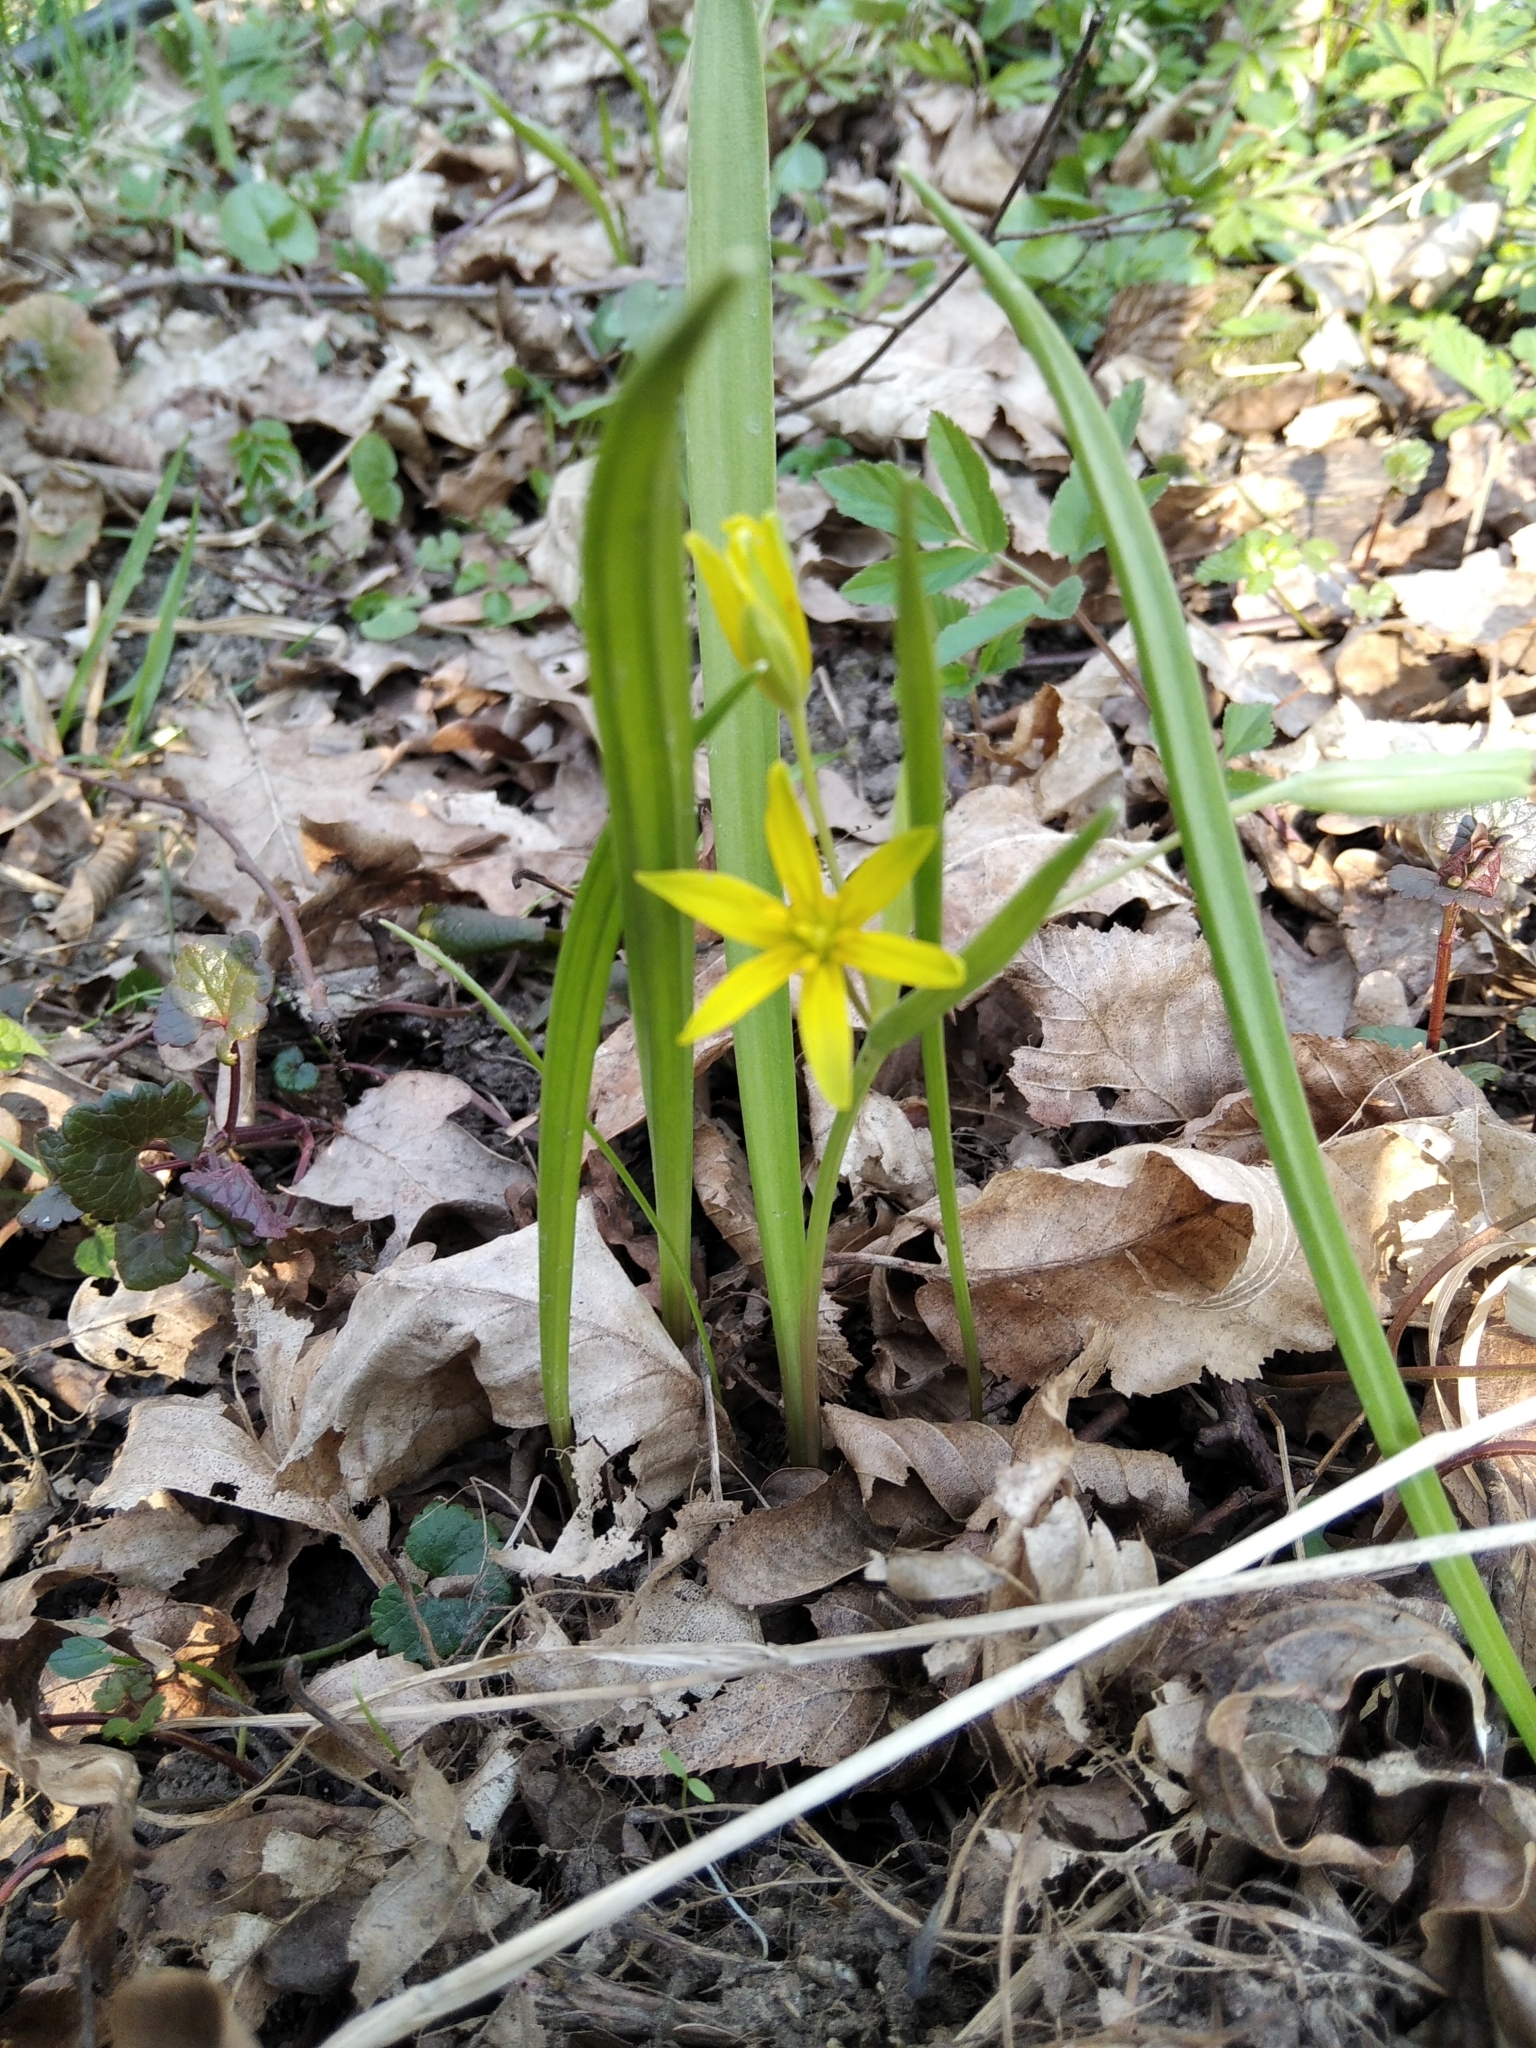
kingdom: Plantae
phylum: Tracheophyta
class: Liliopsida
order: Liliales
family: Liliaceae
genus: Gagea
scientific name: Gagea lutea
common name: Yellow star-of-bethlehem
